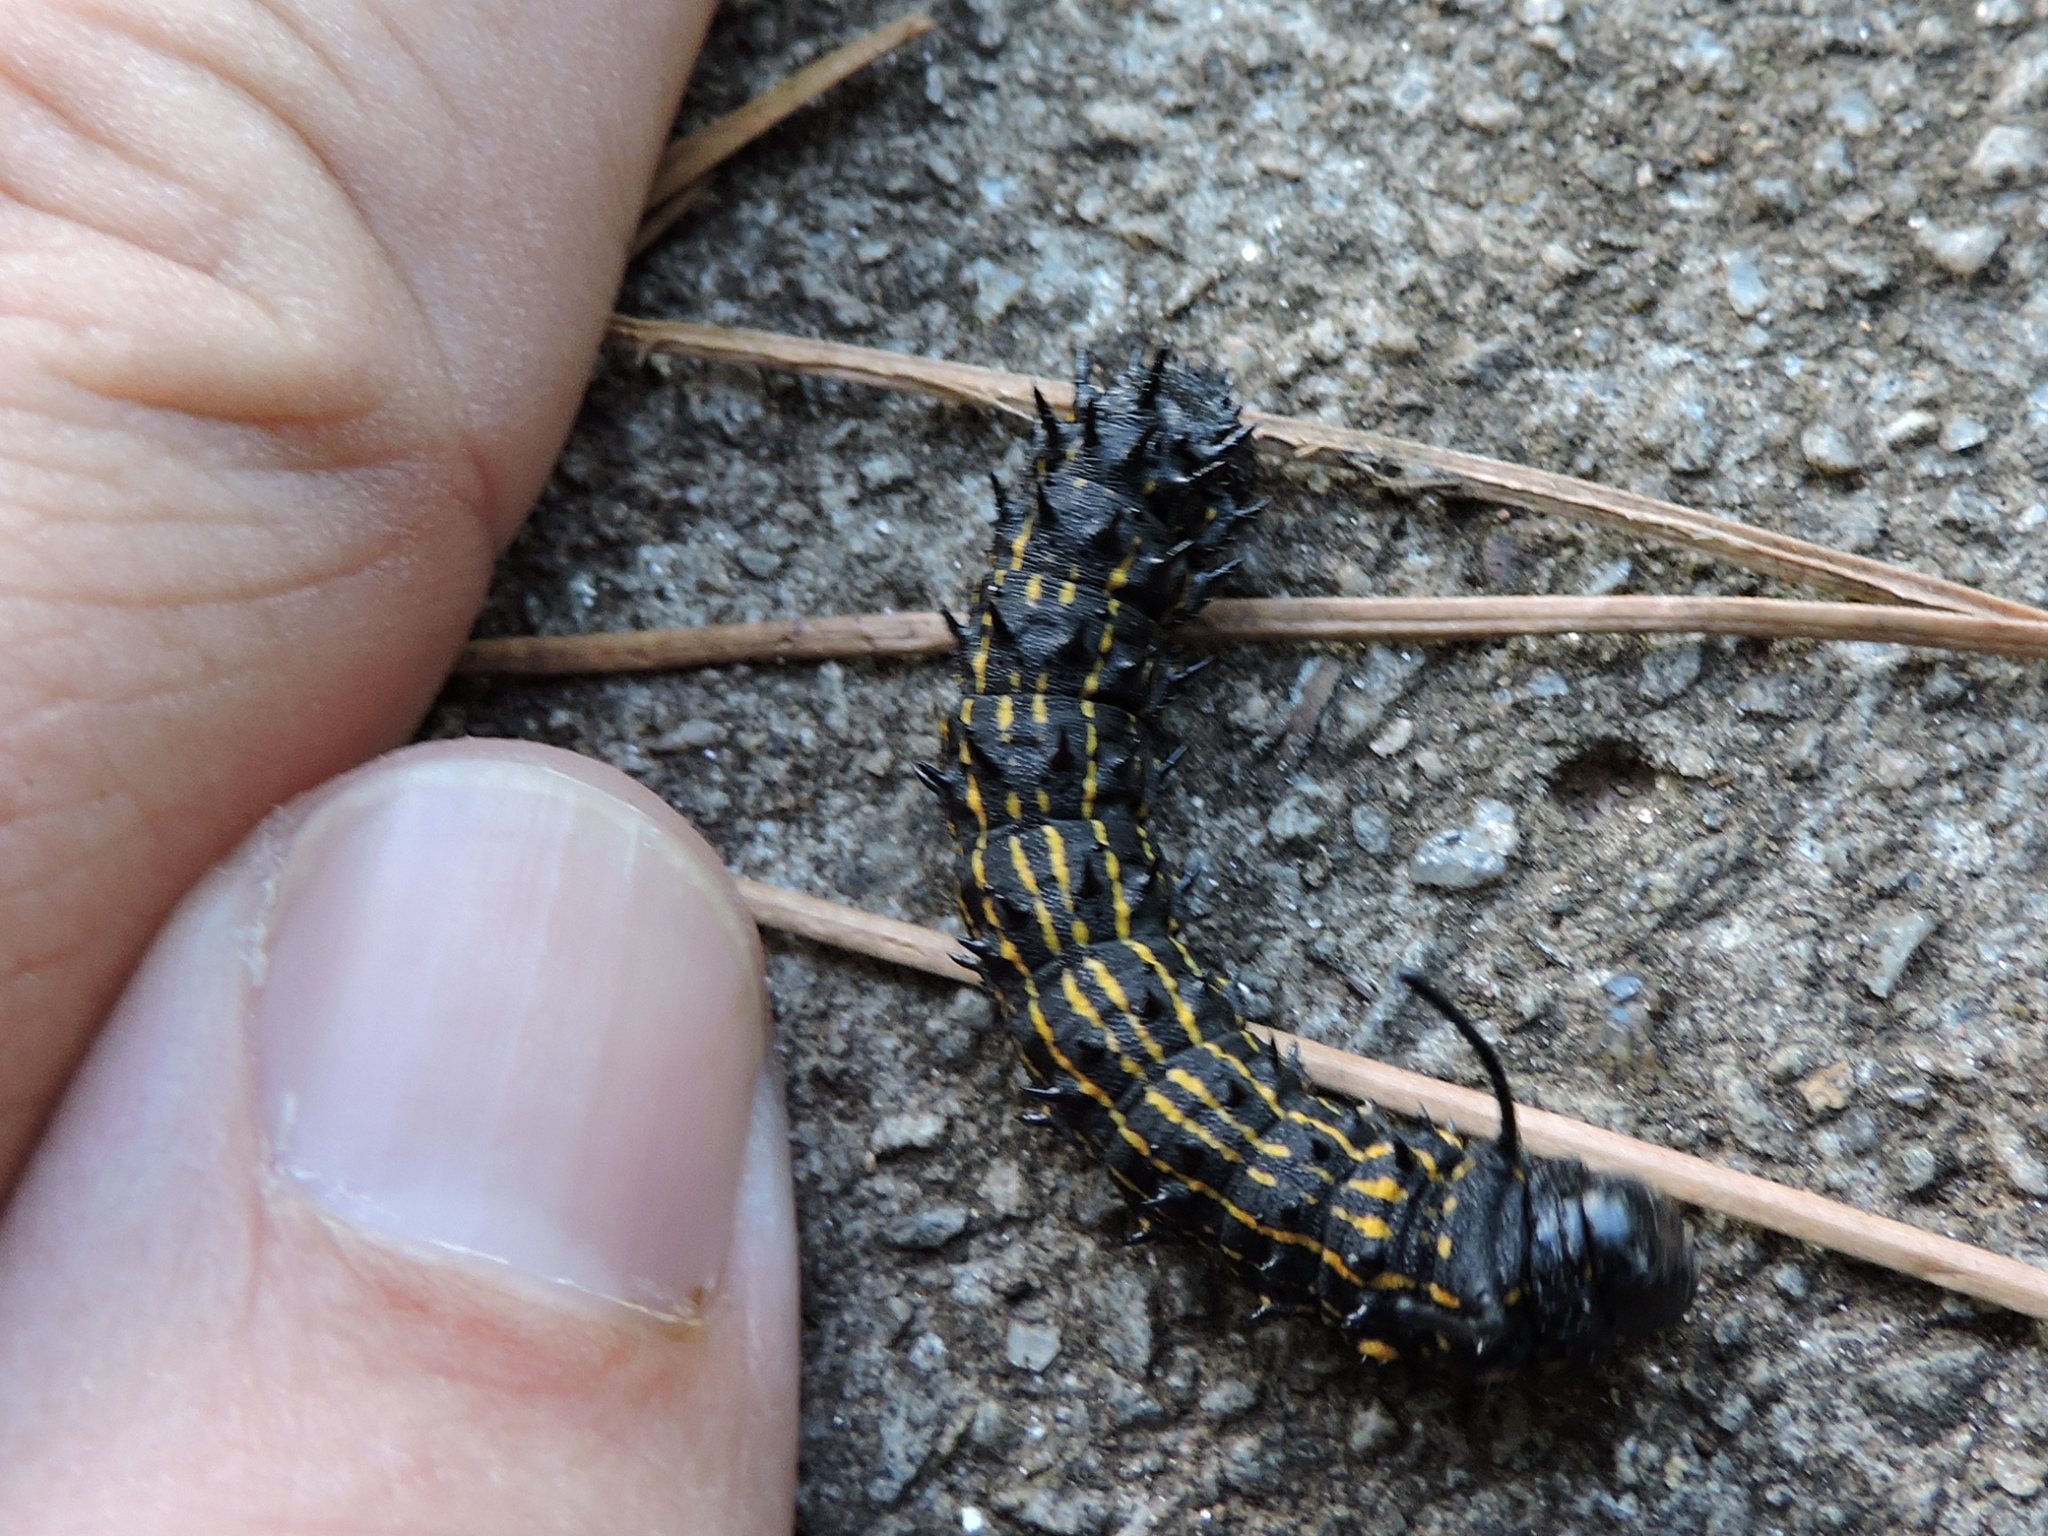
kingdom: Animalia
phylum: Arthropoda
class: Insecta
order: Lepidoptera
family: Saturniidae
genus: Anisota
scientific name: Anisota peigleri
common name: Peigler's oakworm moth
